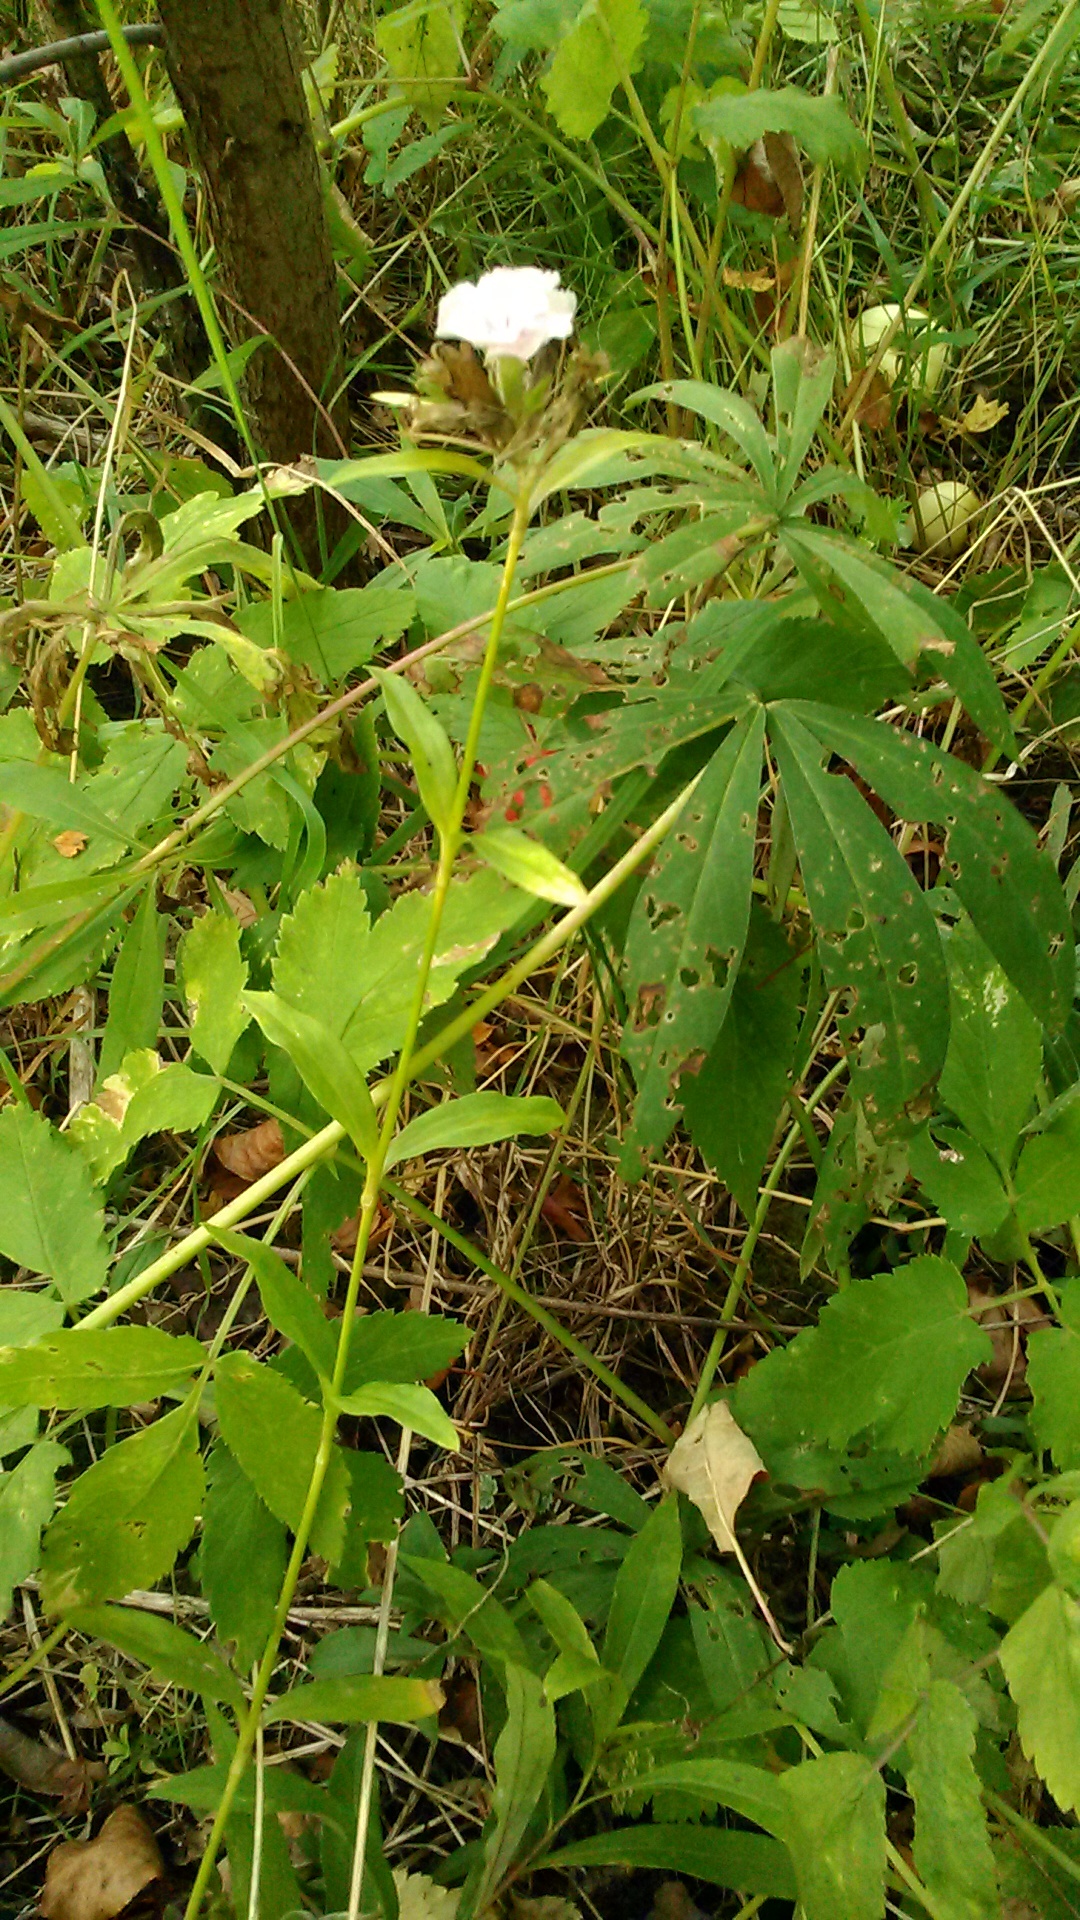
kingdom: Plantae
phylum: Tracheophyta
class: Magnoliopsida
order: Caryophyllales
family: Caryophyllaceae
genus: Saponaria
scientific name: Saponaria officinalis
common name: Soapwort
